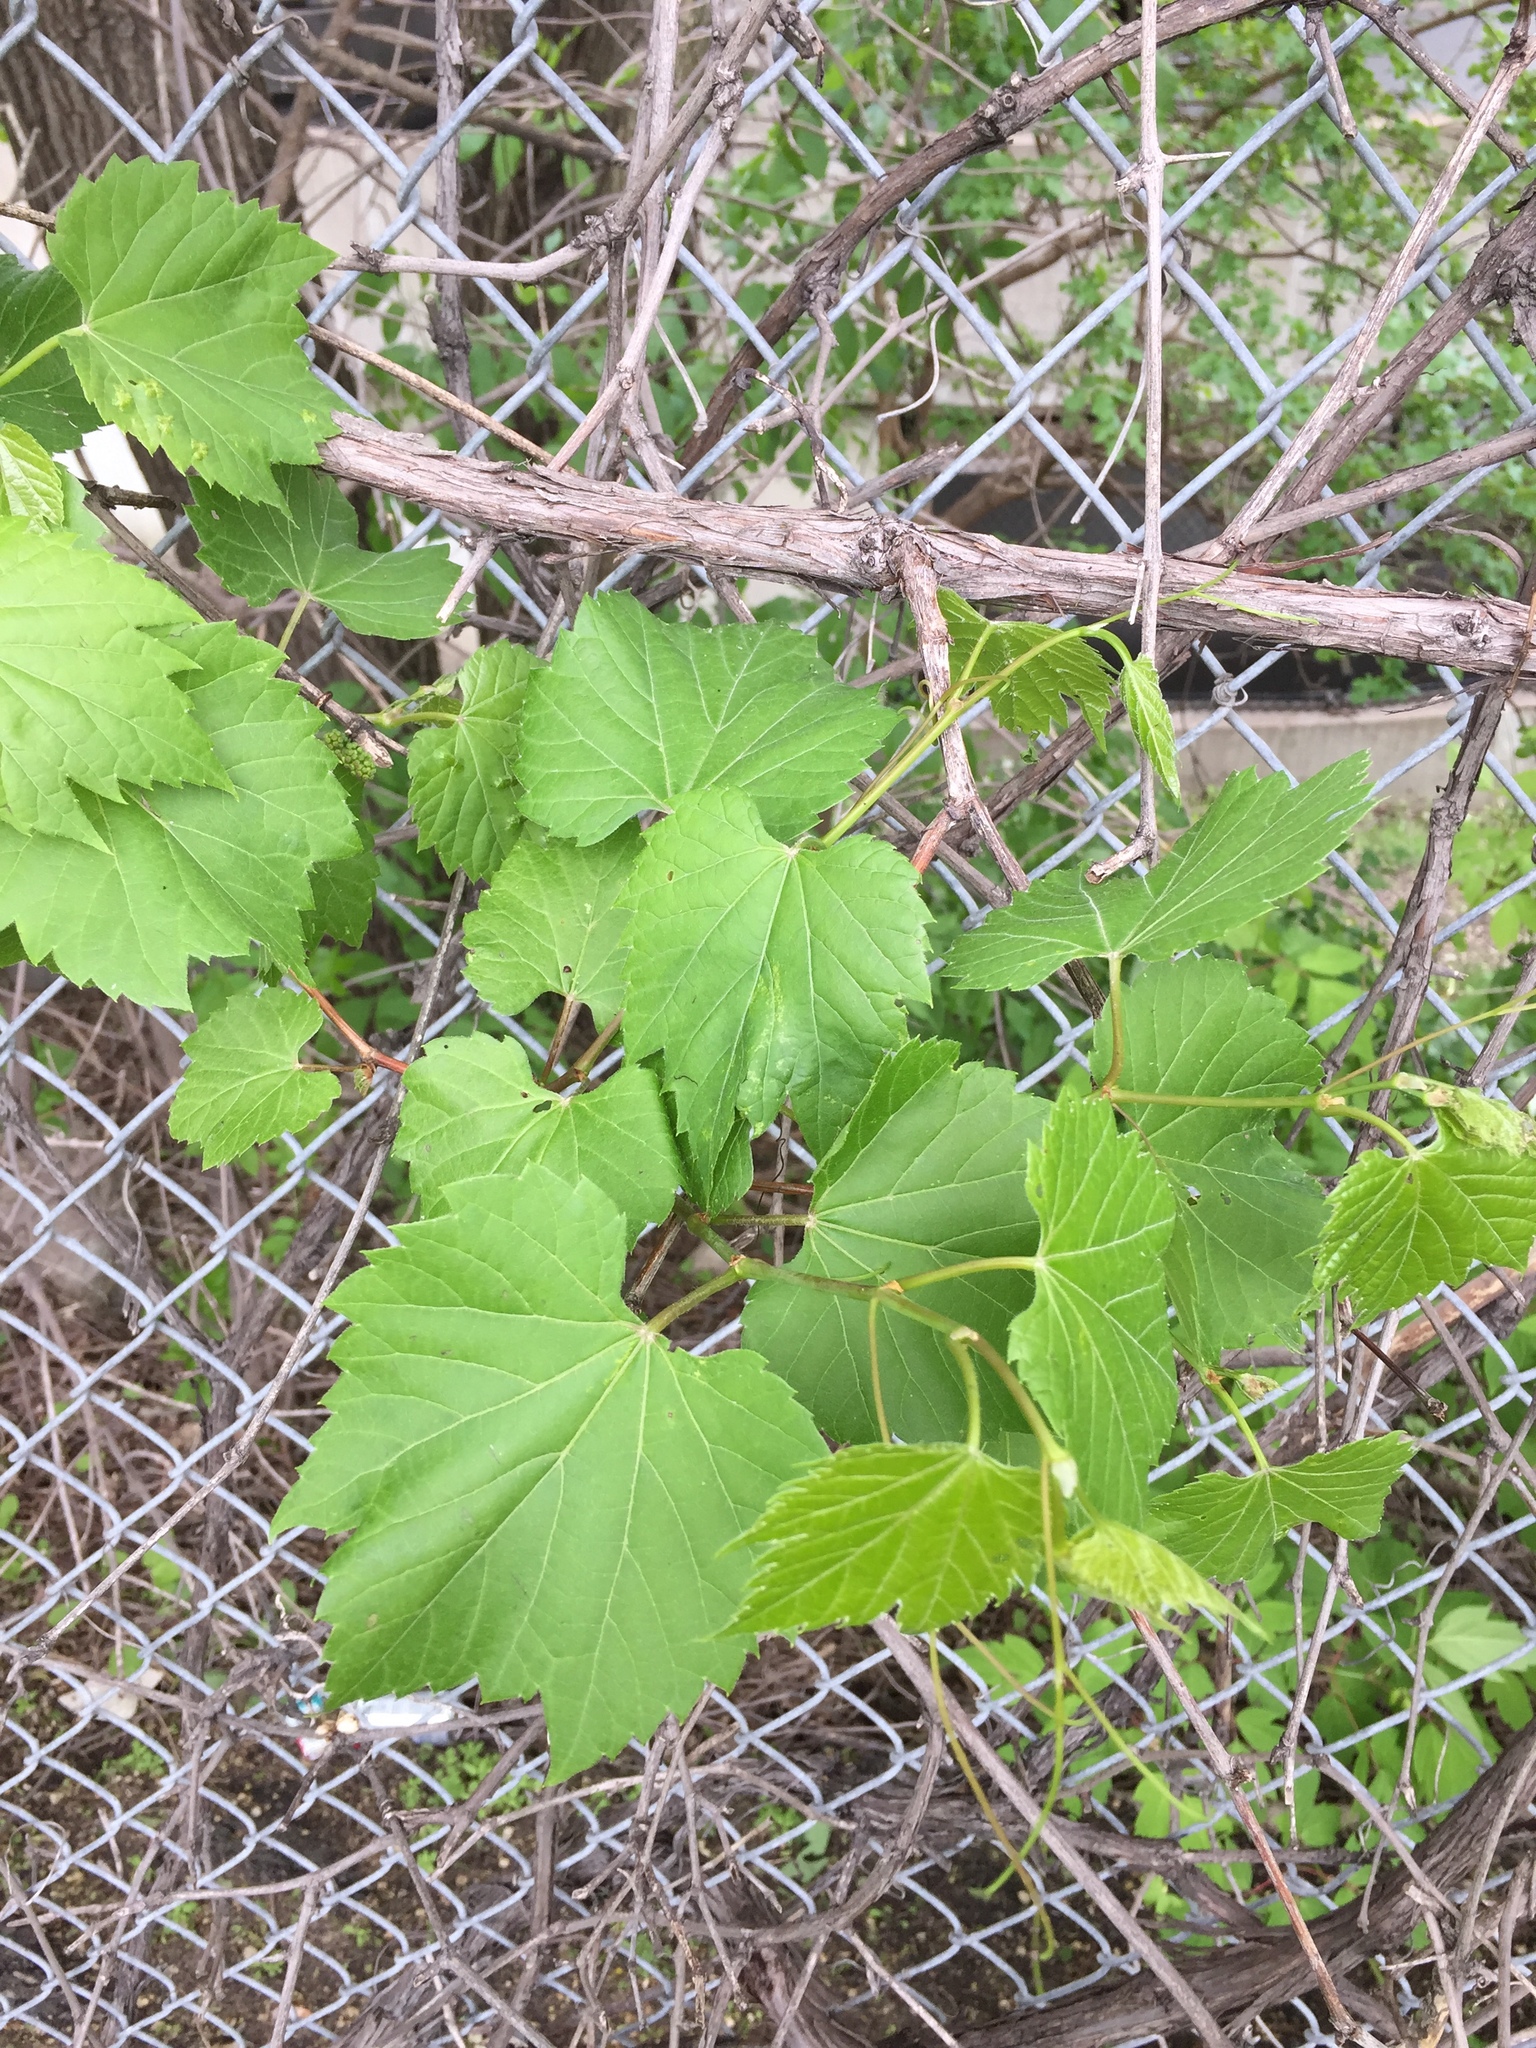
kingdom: Plantae
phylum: Tracheophyta
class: Magnoliopsida
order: Vitales
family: Vitaceae
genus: Vitis
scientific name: Vitis riparia
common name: Frost grape
